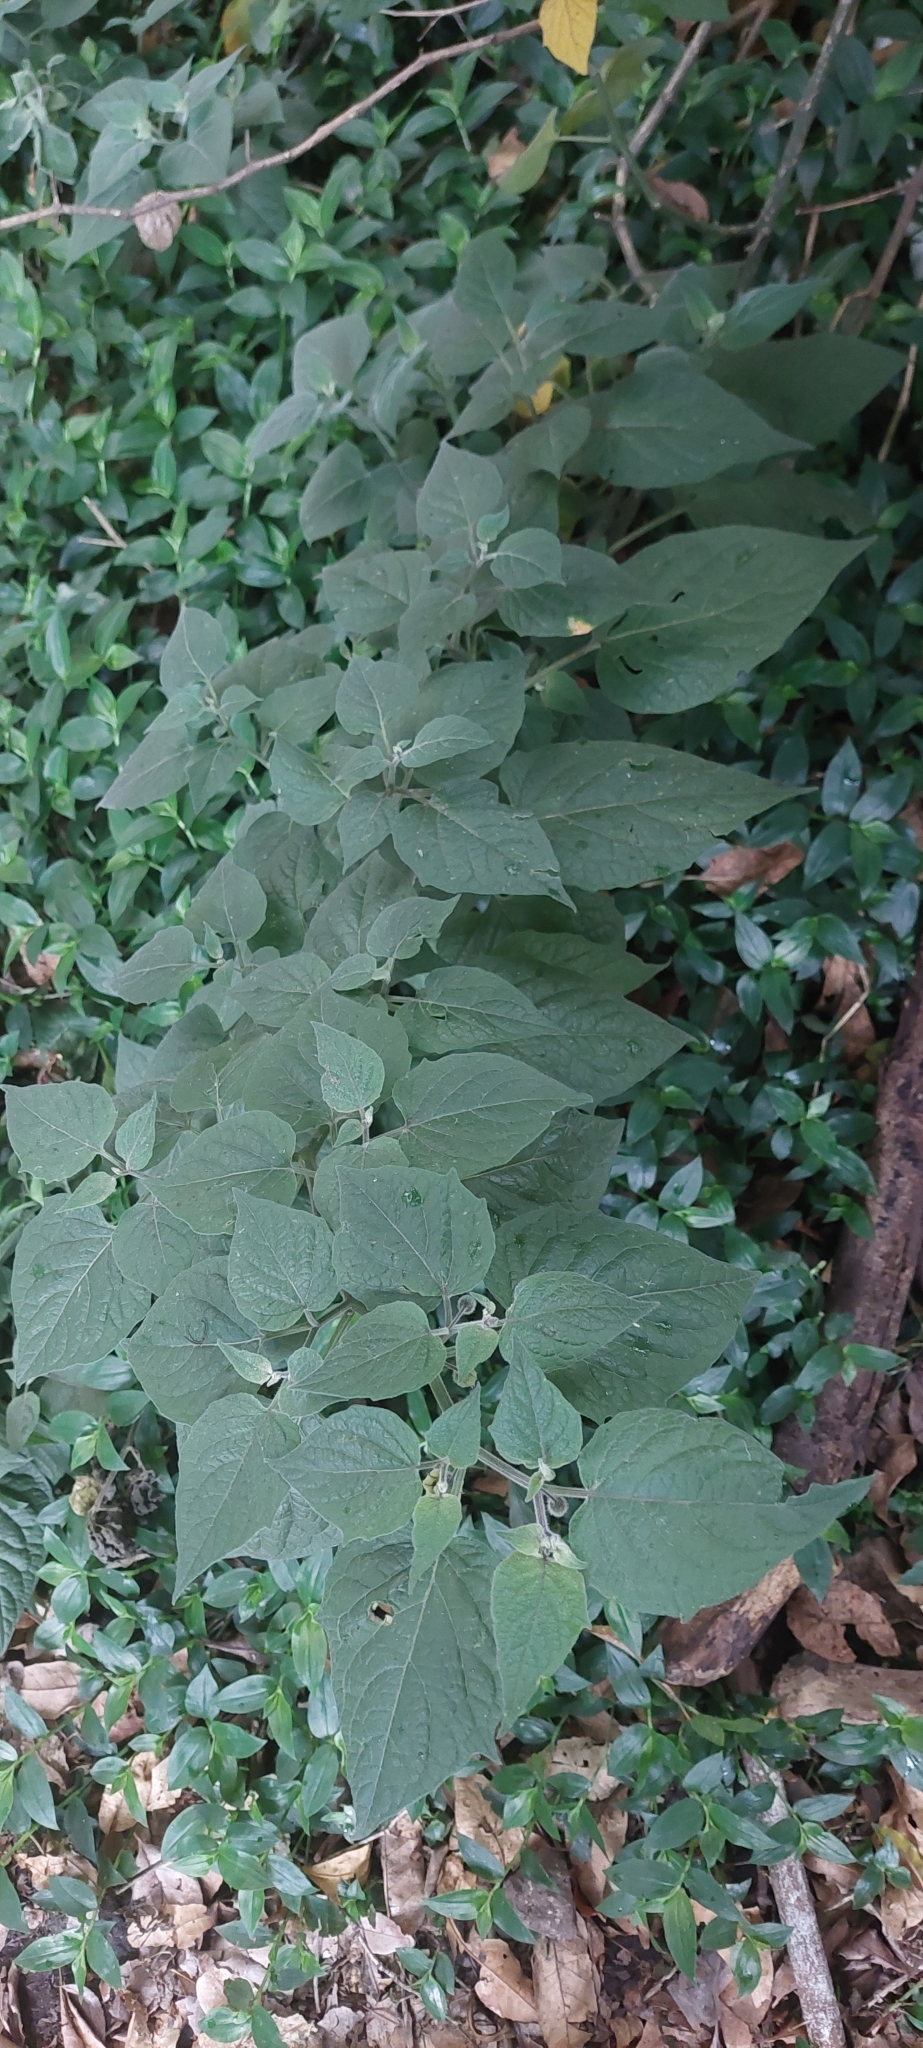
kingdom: Plantae
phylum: Tracheophyta
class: Magnoliopsida
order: Solanales
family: Solanaceae
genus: Physalis
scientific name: Physalis peruviana
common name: Cape-gooseberry
